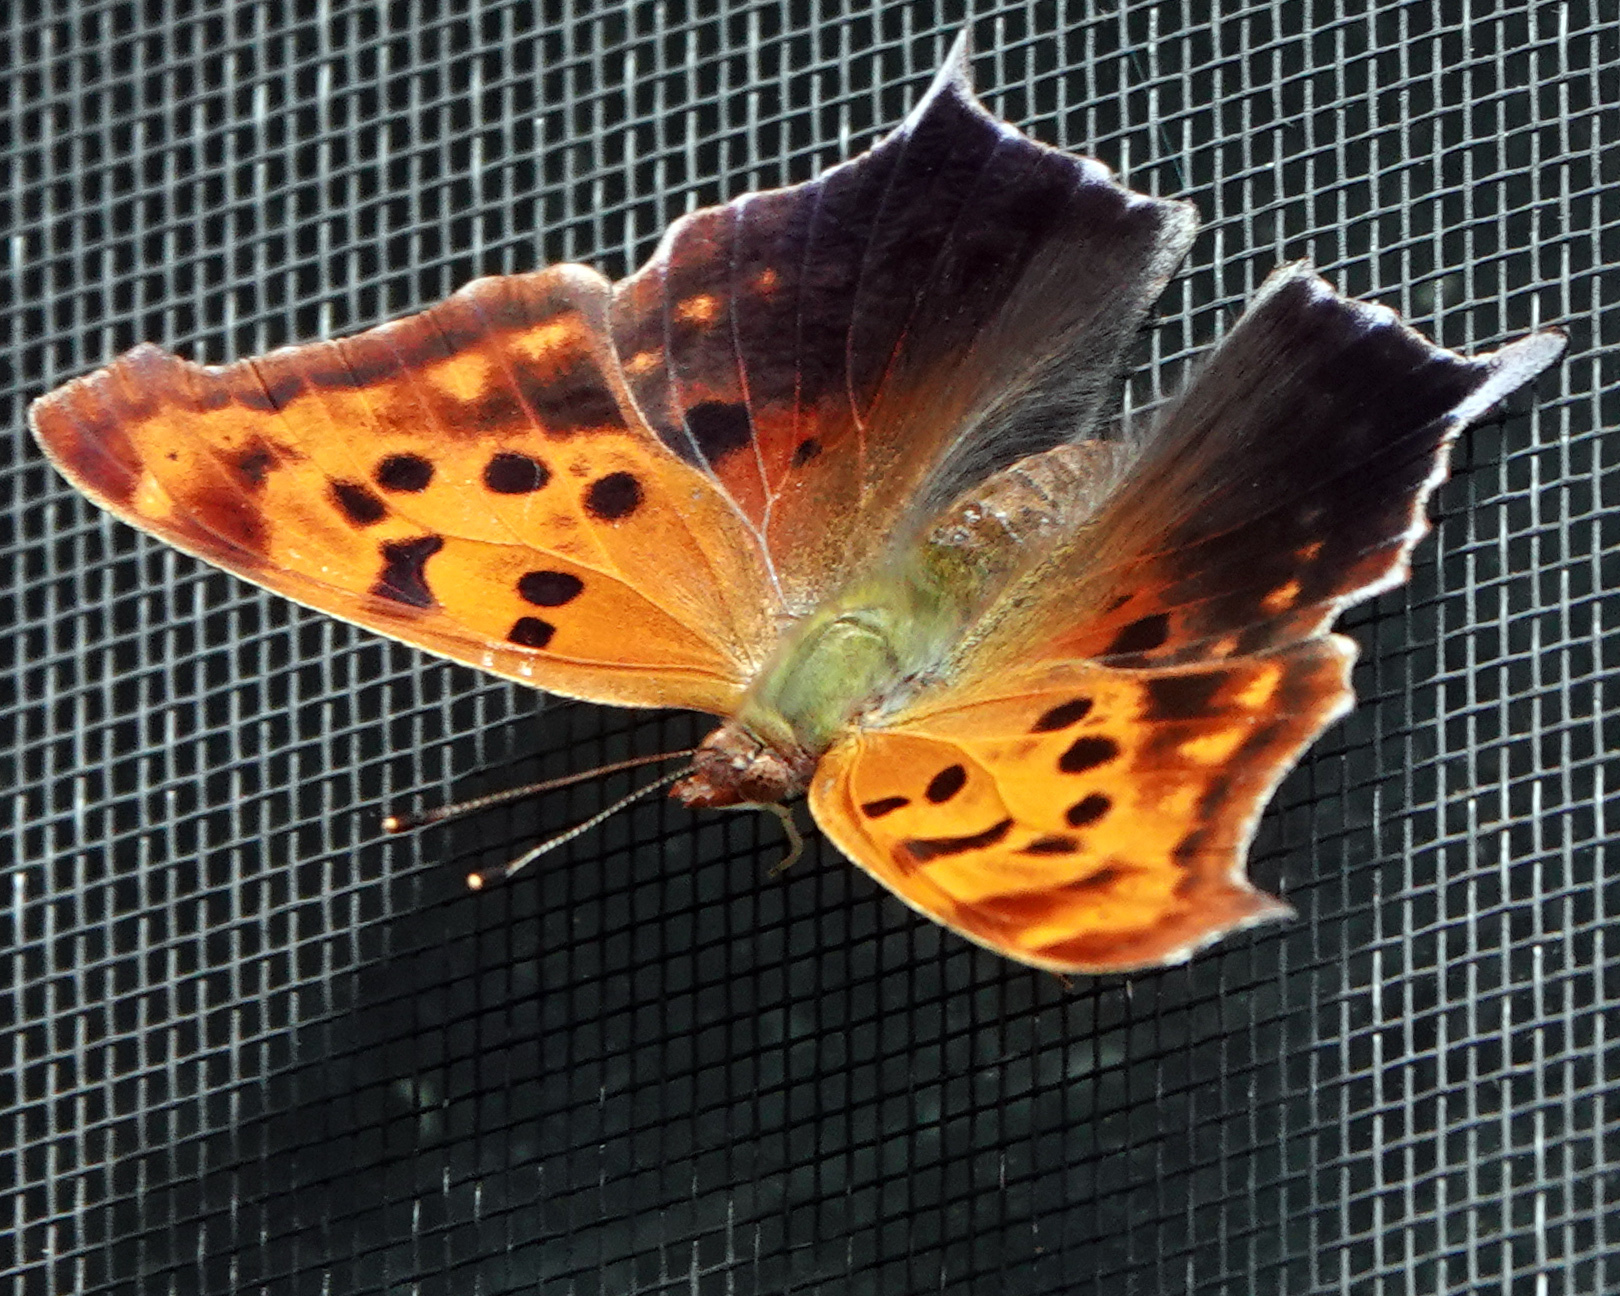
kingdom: Animalia
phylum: Arthropoda
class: Insecta
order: Lepidoptera
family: Nymphalidae
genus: Polygonia
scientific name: Polygonia interrogationis
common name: Question mark
